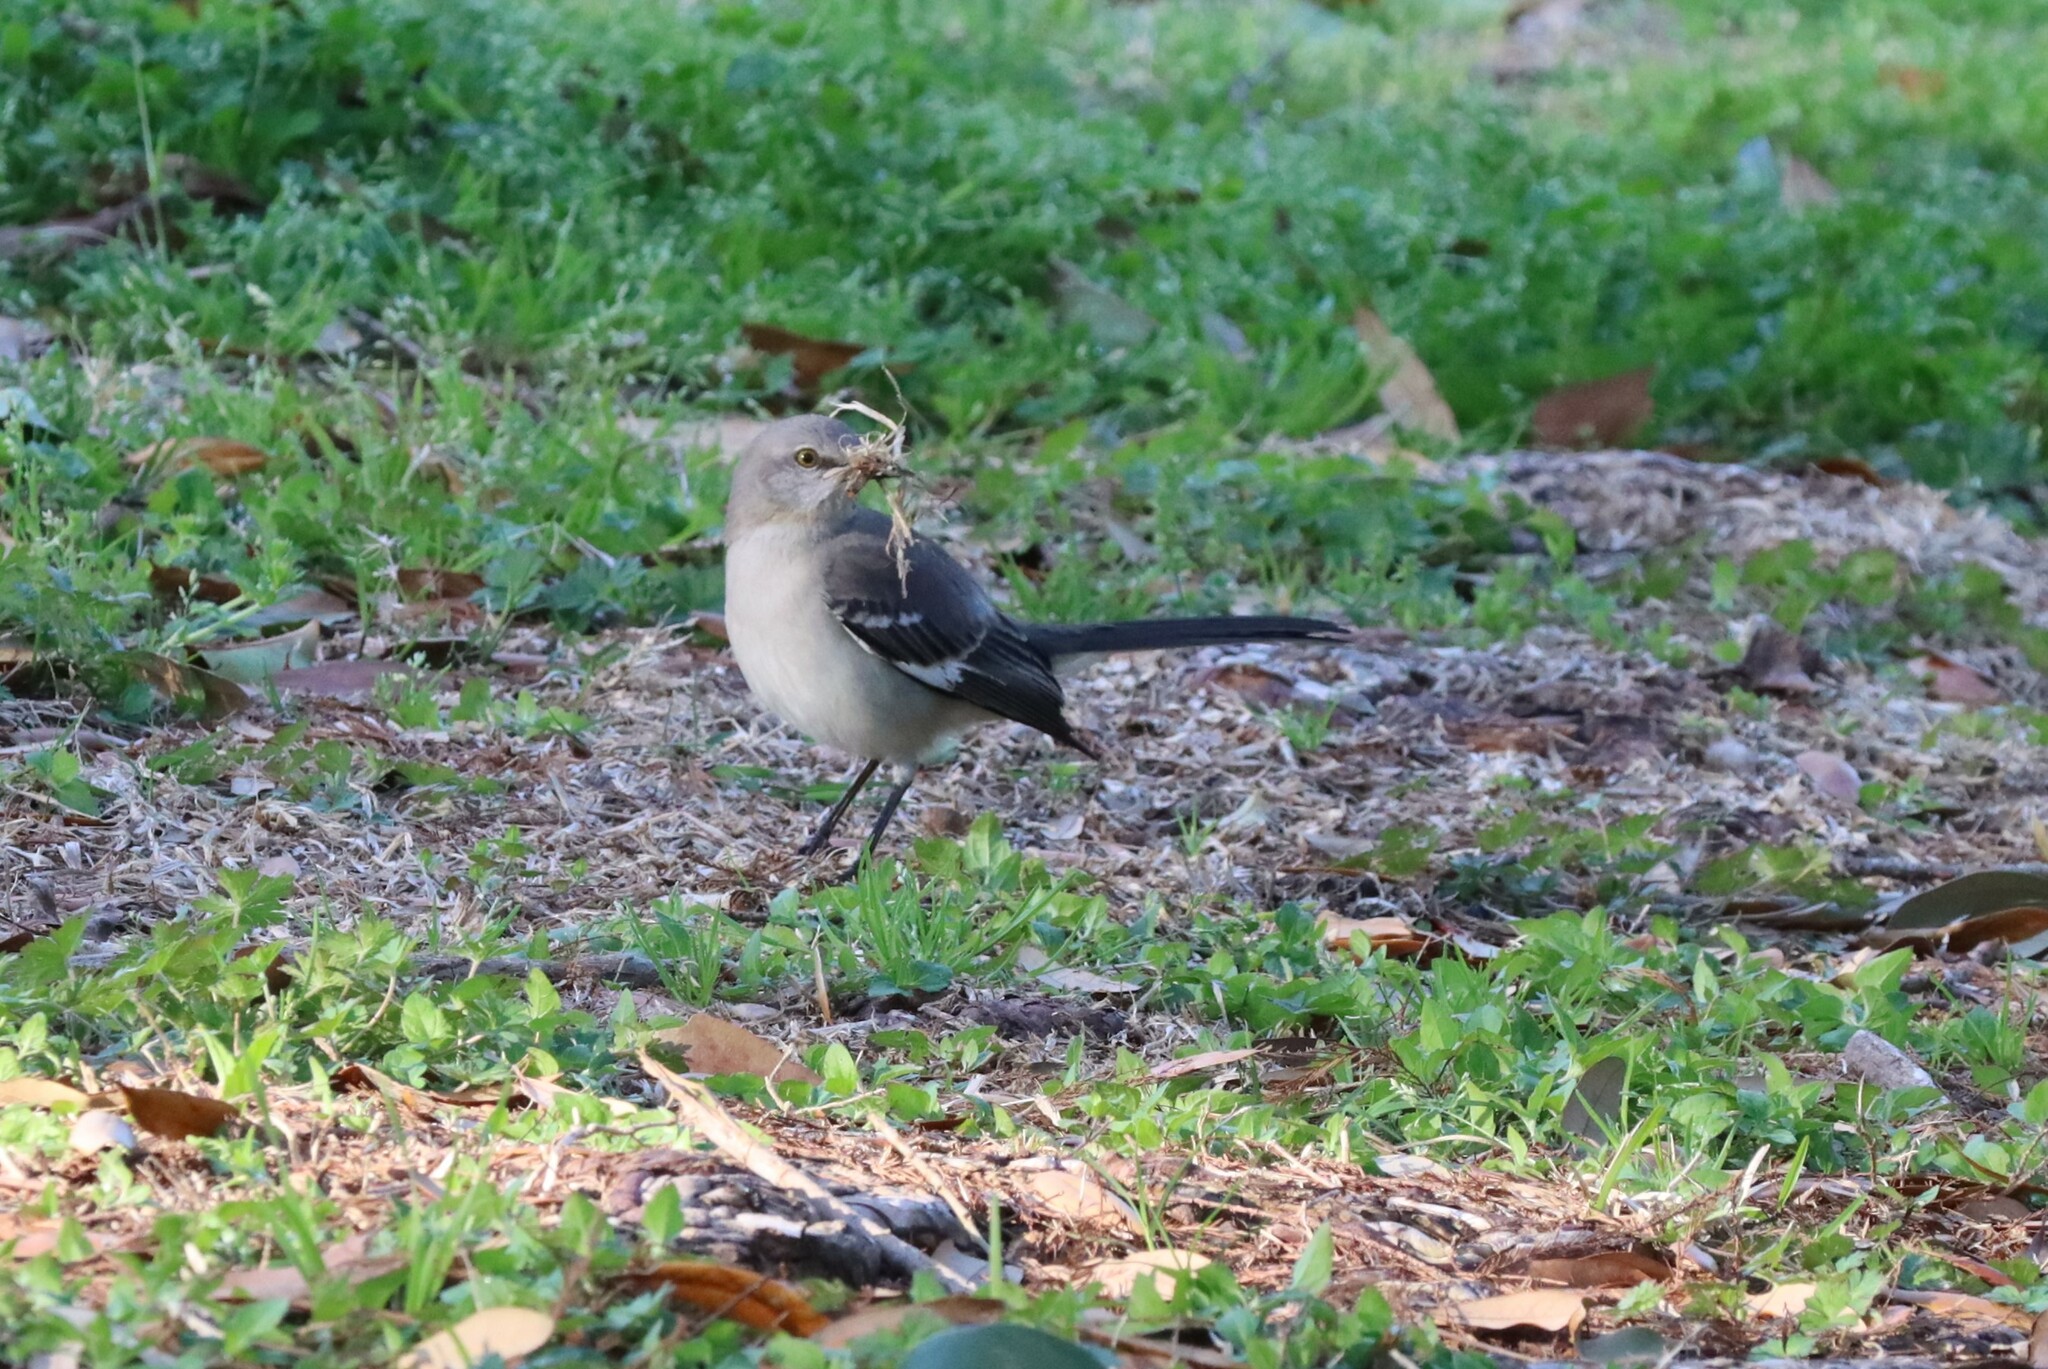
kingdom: Animalia
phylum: Chordata
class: Aves
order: Passeriformes
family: Mimidae
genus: Mimus
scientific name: Mimus polyglottos
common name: Northern mockingbird
